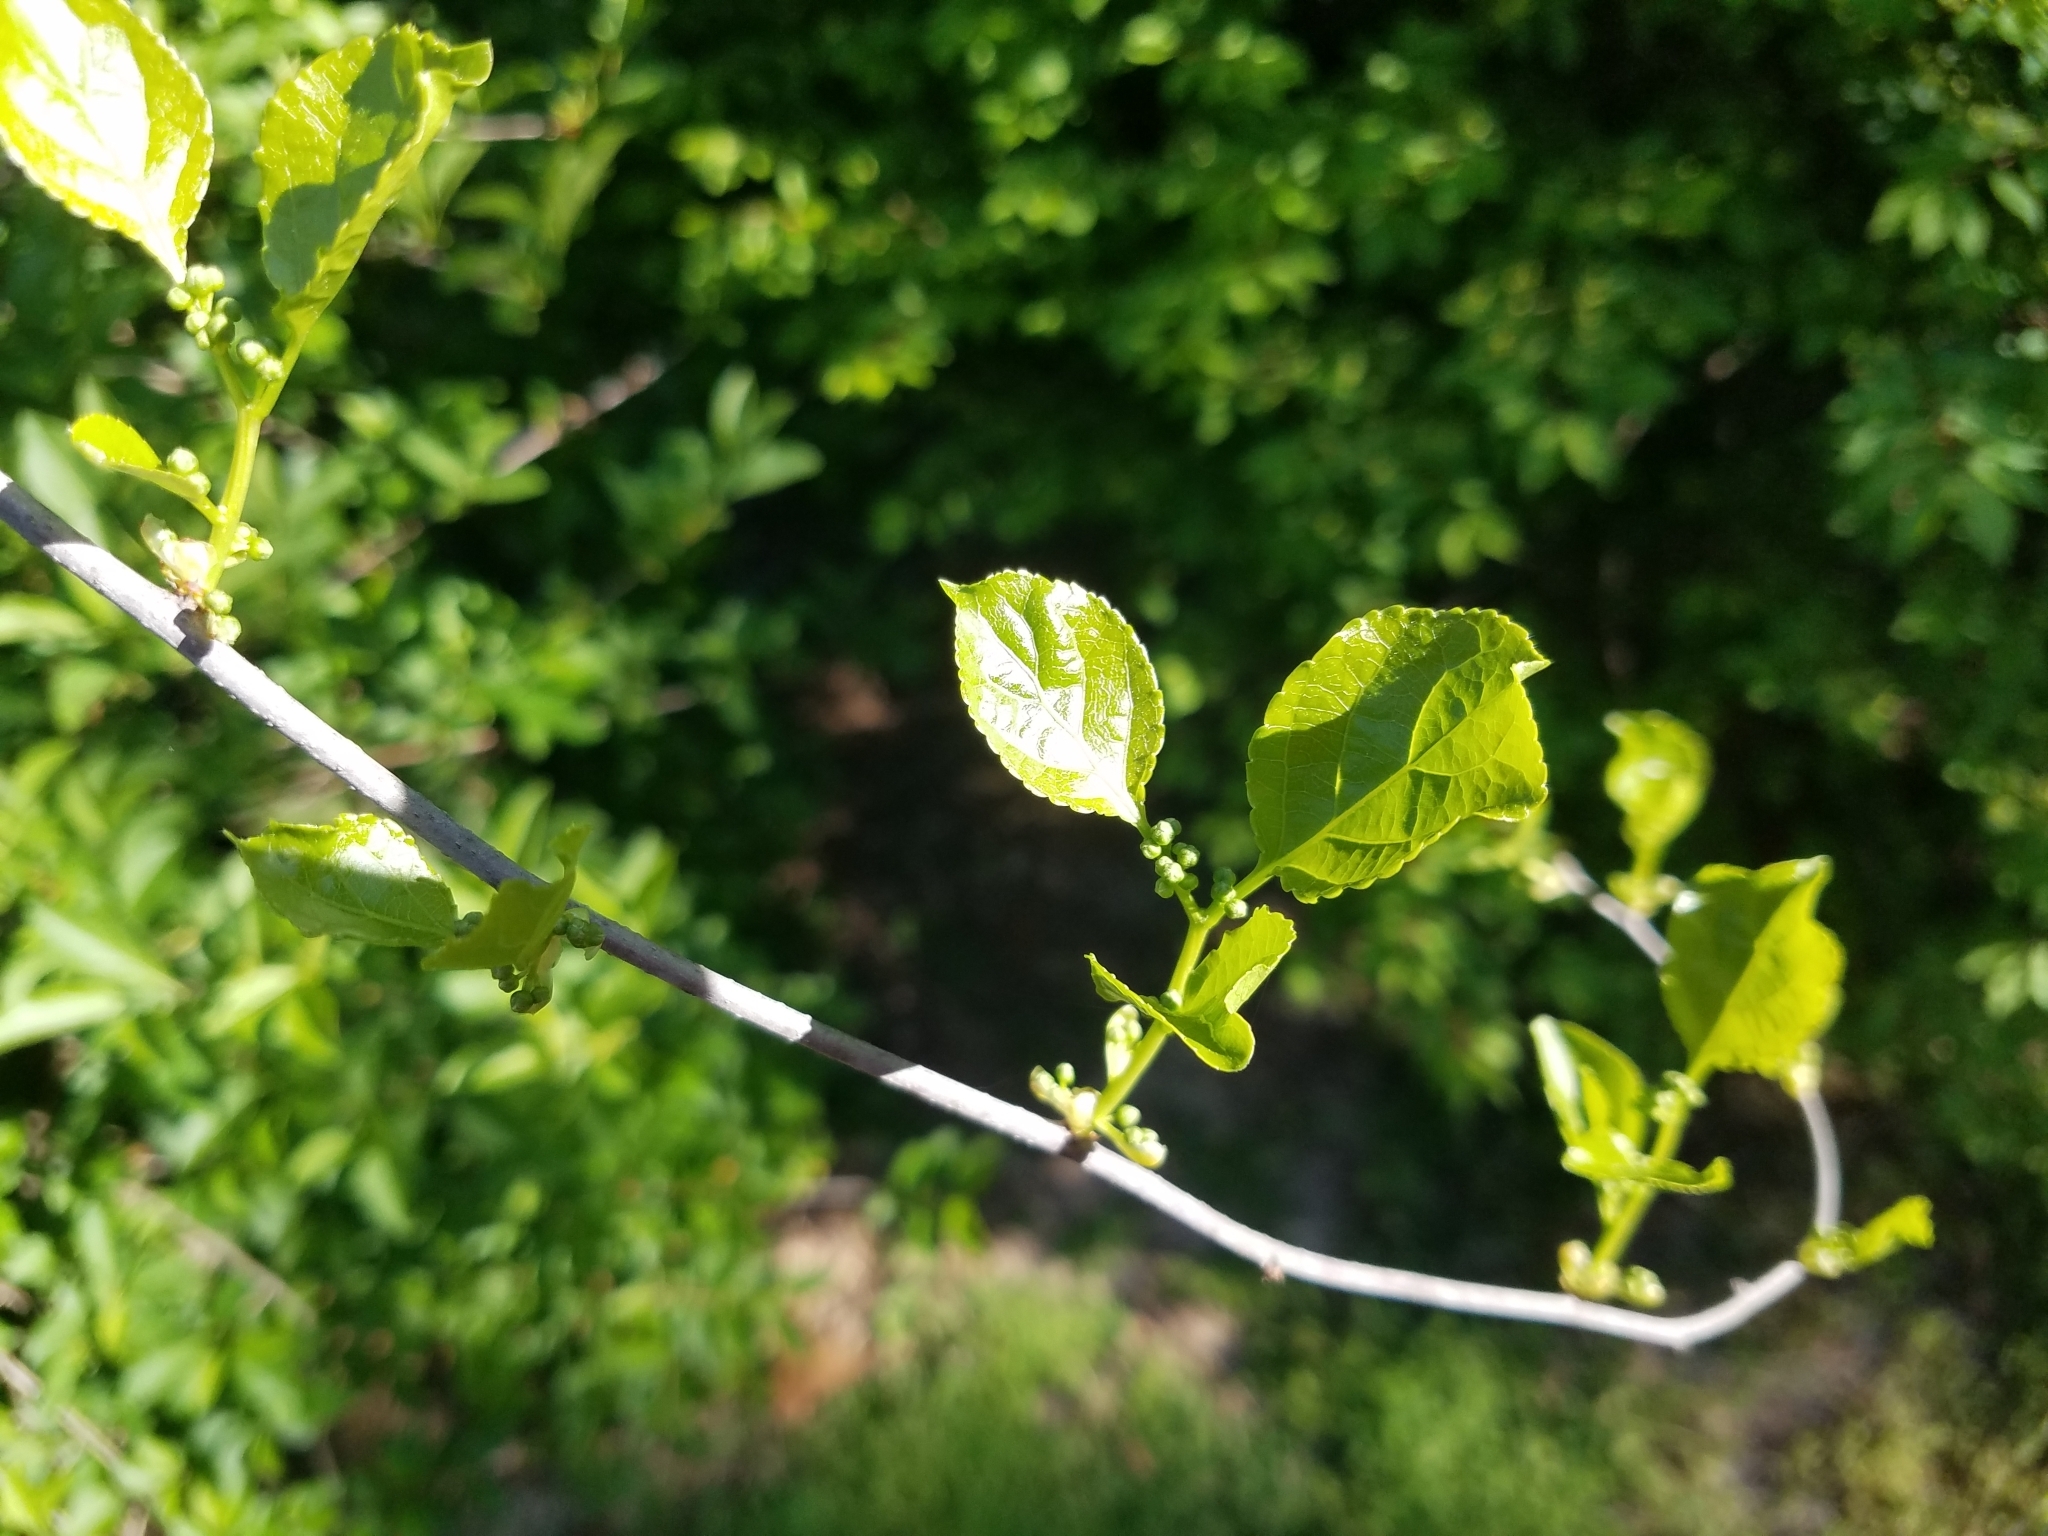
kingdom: Plantae
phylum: Tracheophyta
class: Magnoliopsida
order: Celastrales
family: Celastraceae
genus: Celastrus
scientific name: Celastrus orbiculatus
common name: Oriental bittersweet
